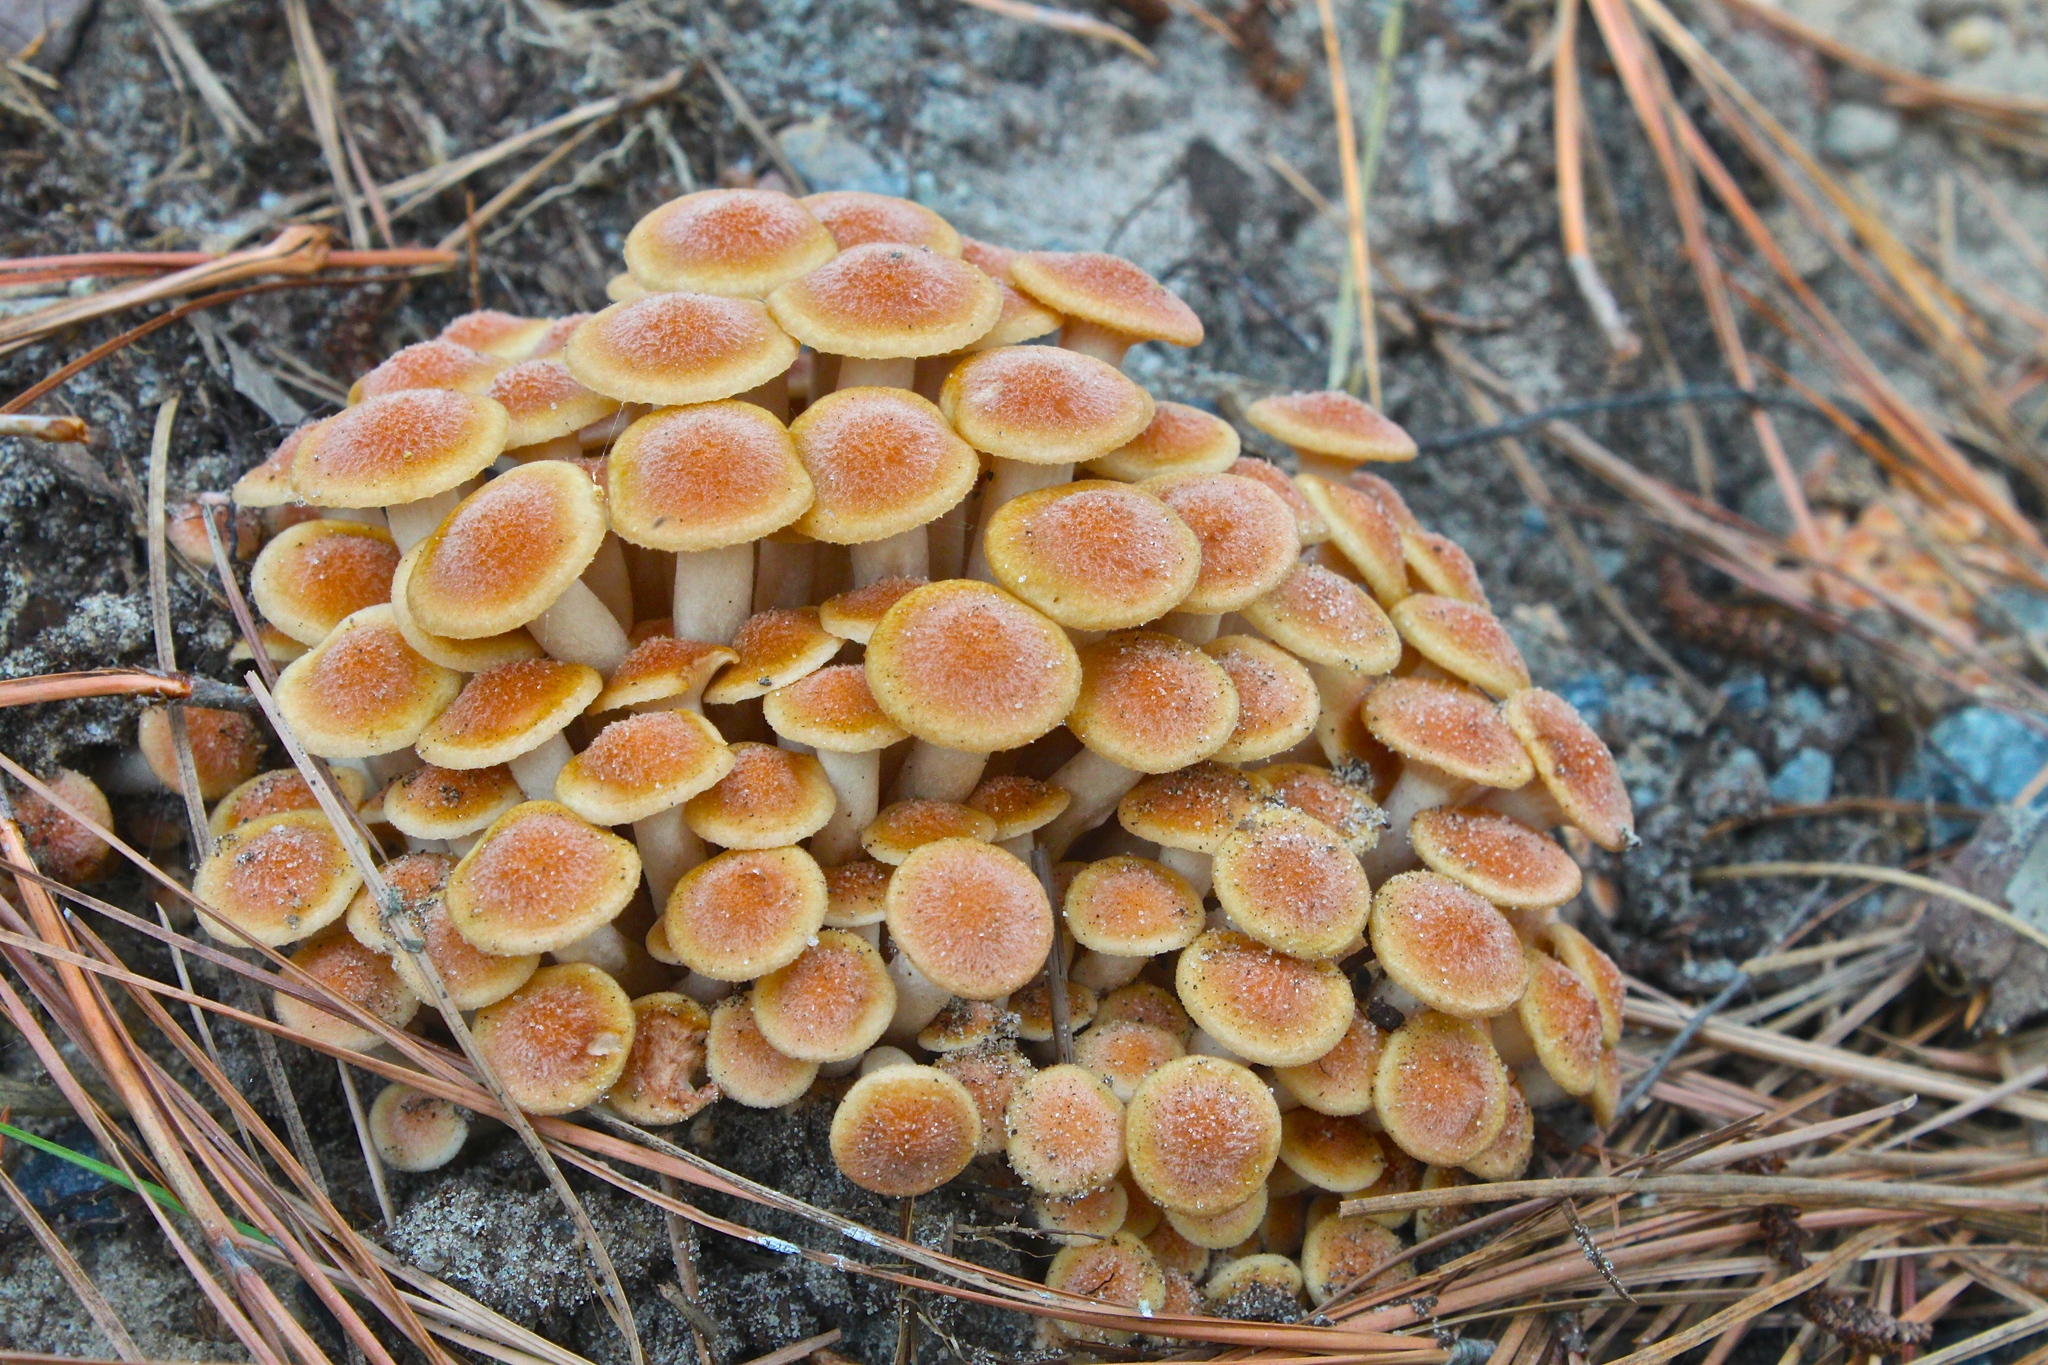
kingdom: Fungi
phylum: Basidiomycota
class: Agaricomycetes
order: Agaricales
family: Physalacriaceae
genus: Desarmillaria
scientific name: Desarmillaria caespitosa
